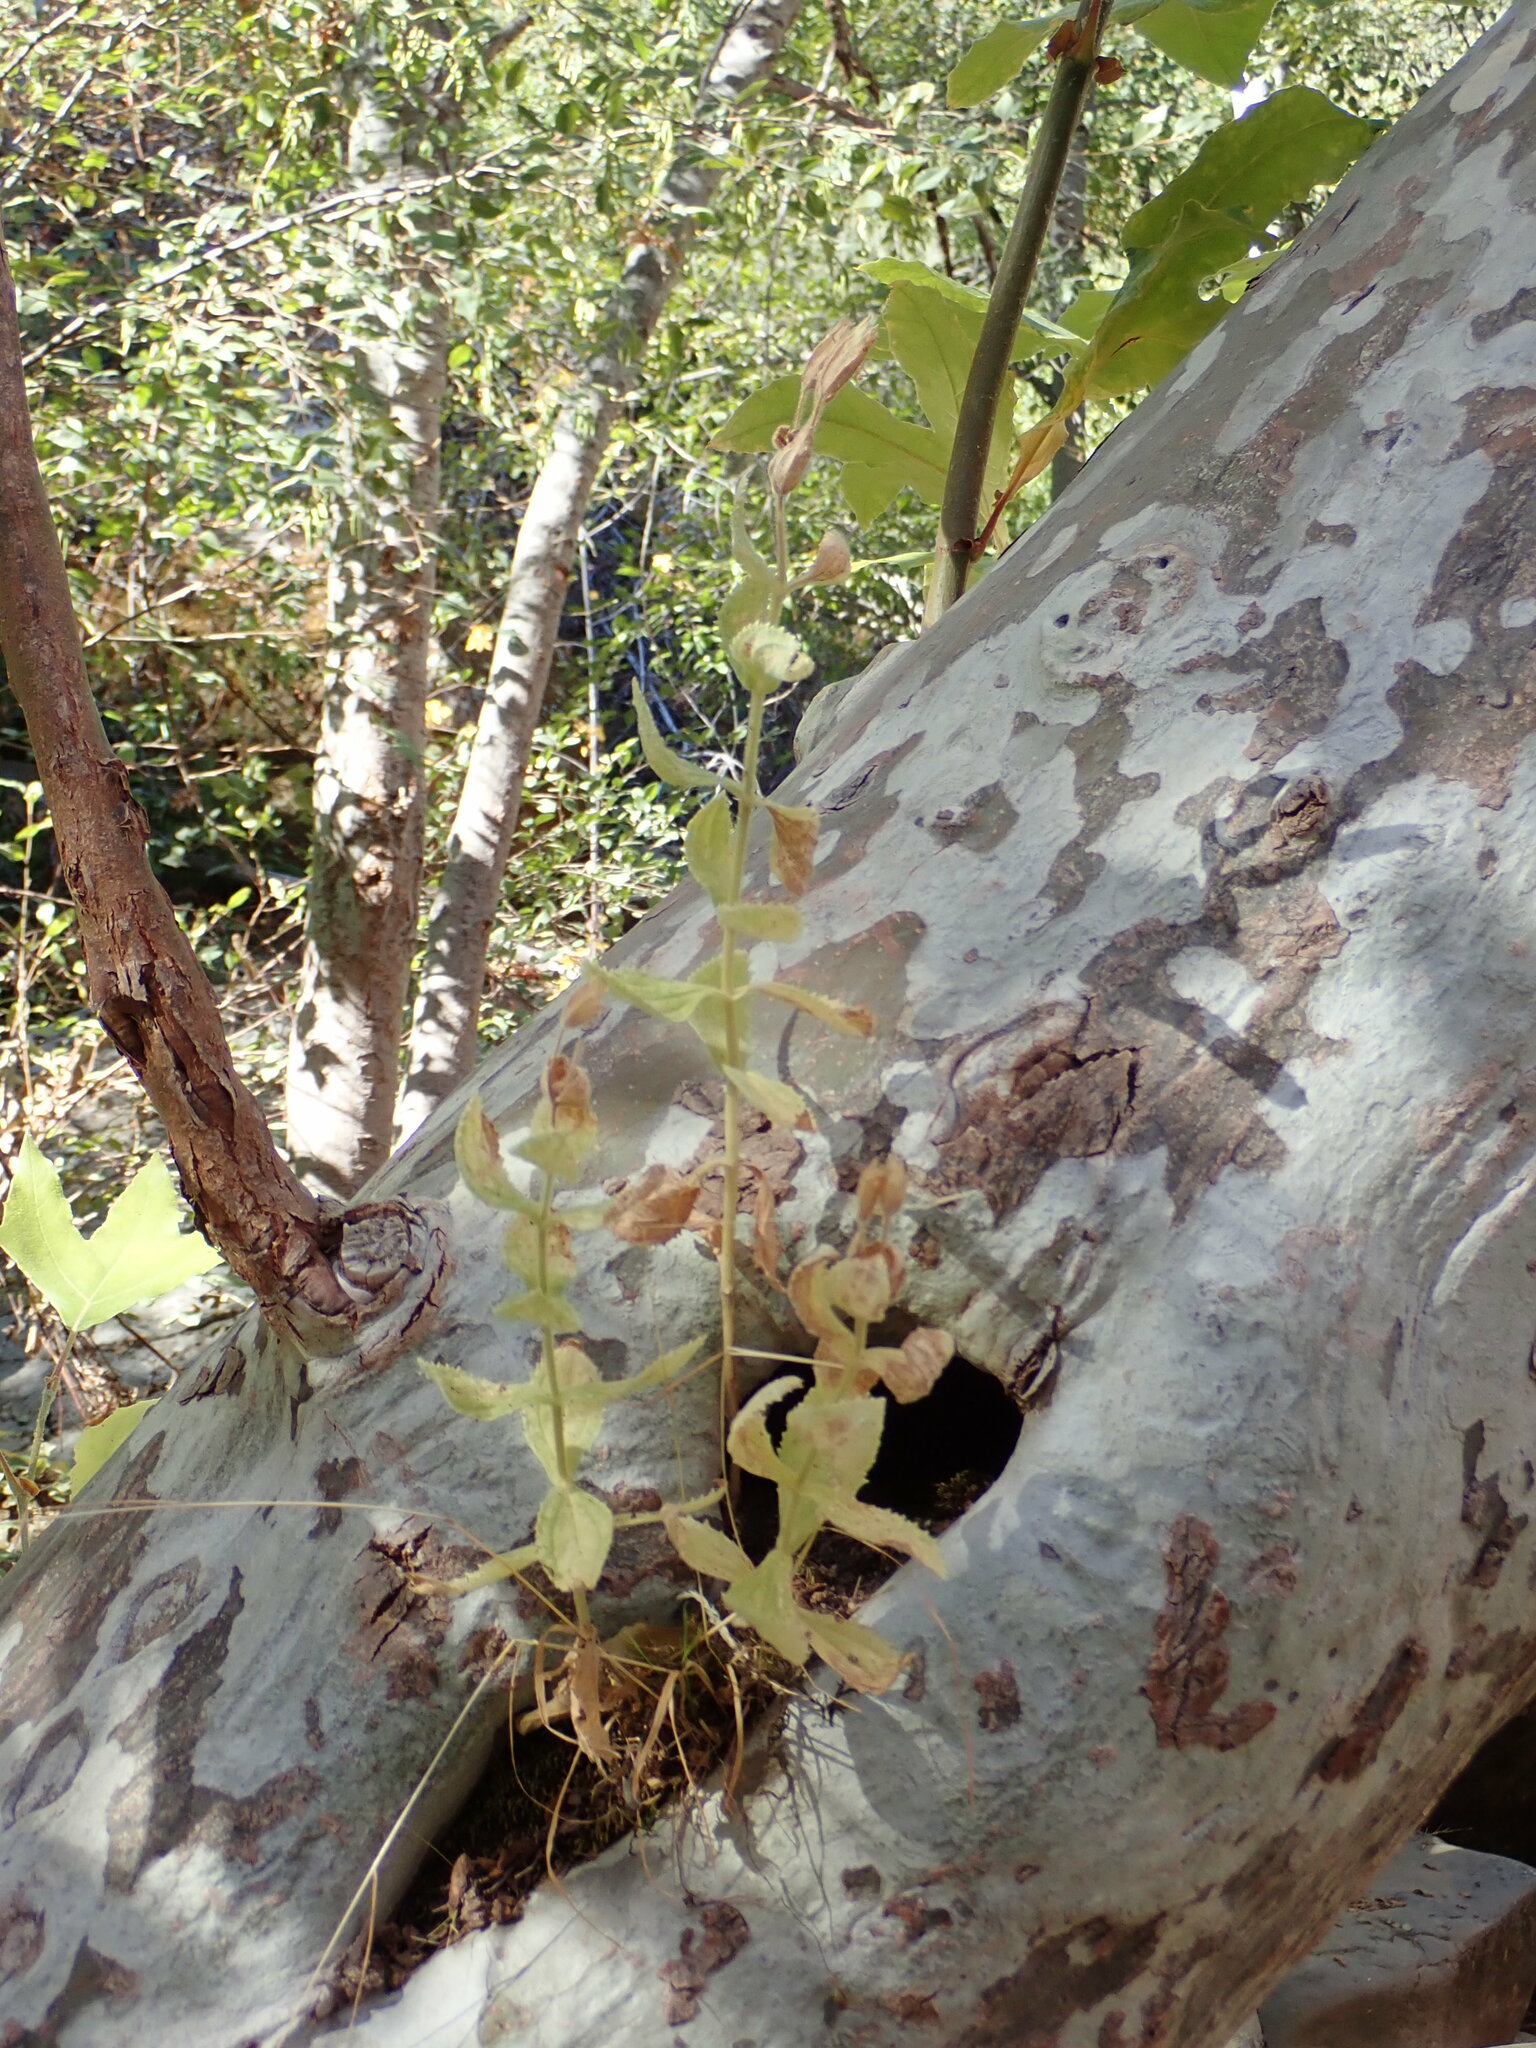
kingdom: Plantae
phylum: Tracheophyta
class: Magnoliopsida
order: Proteales
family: Platanaceae
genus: Platanus
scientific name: Platanus racemosa
